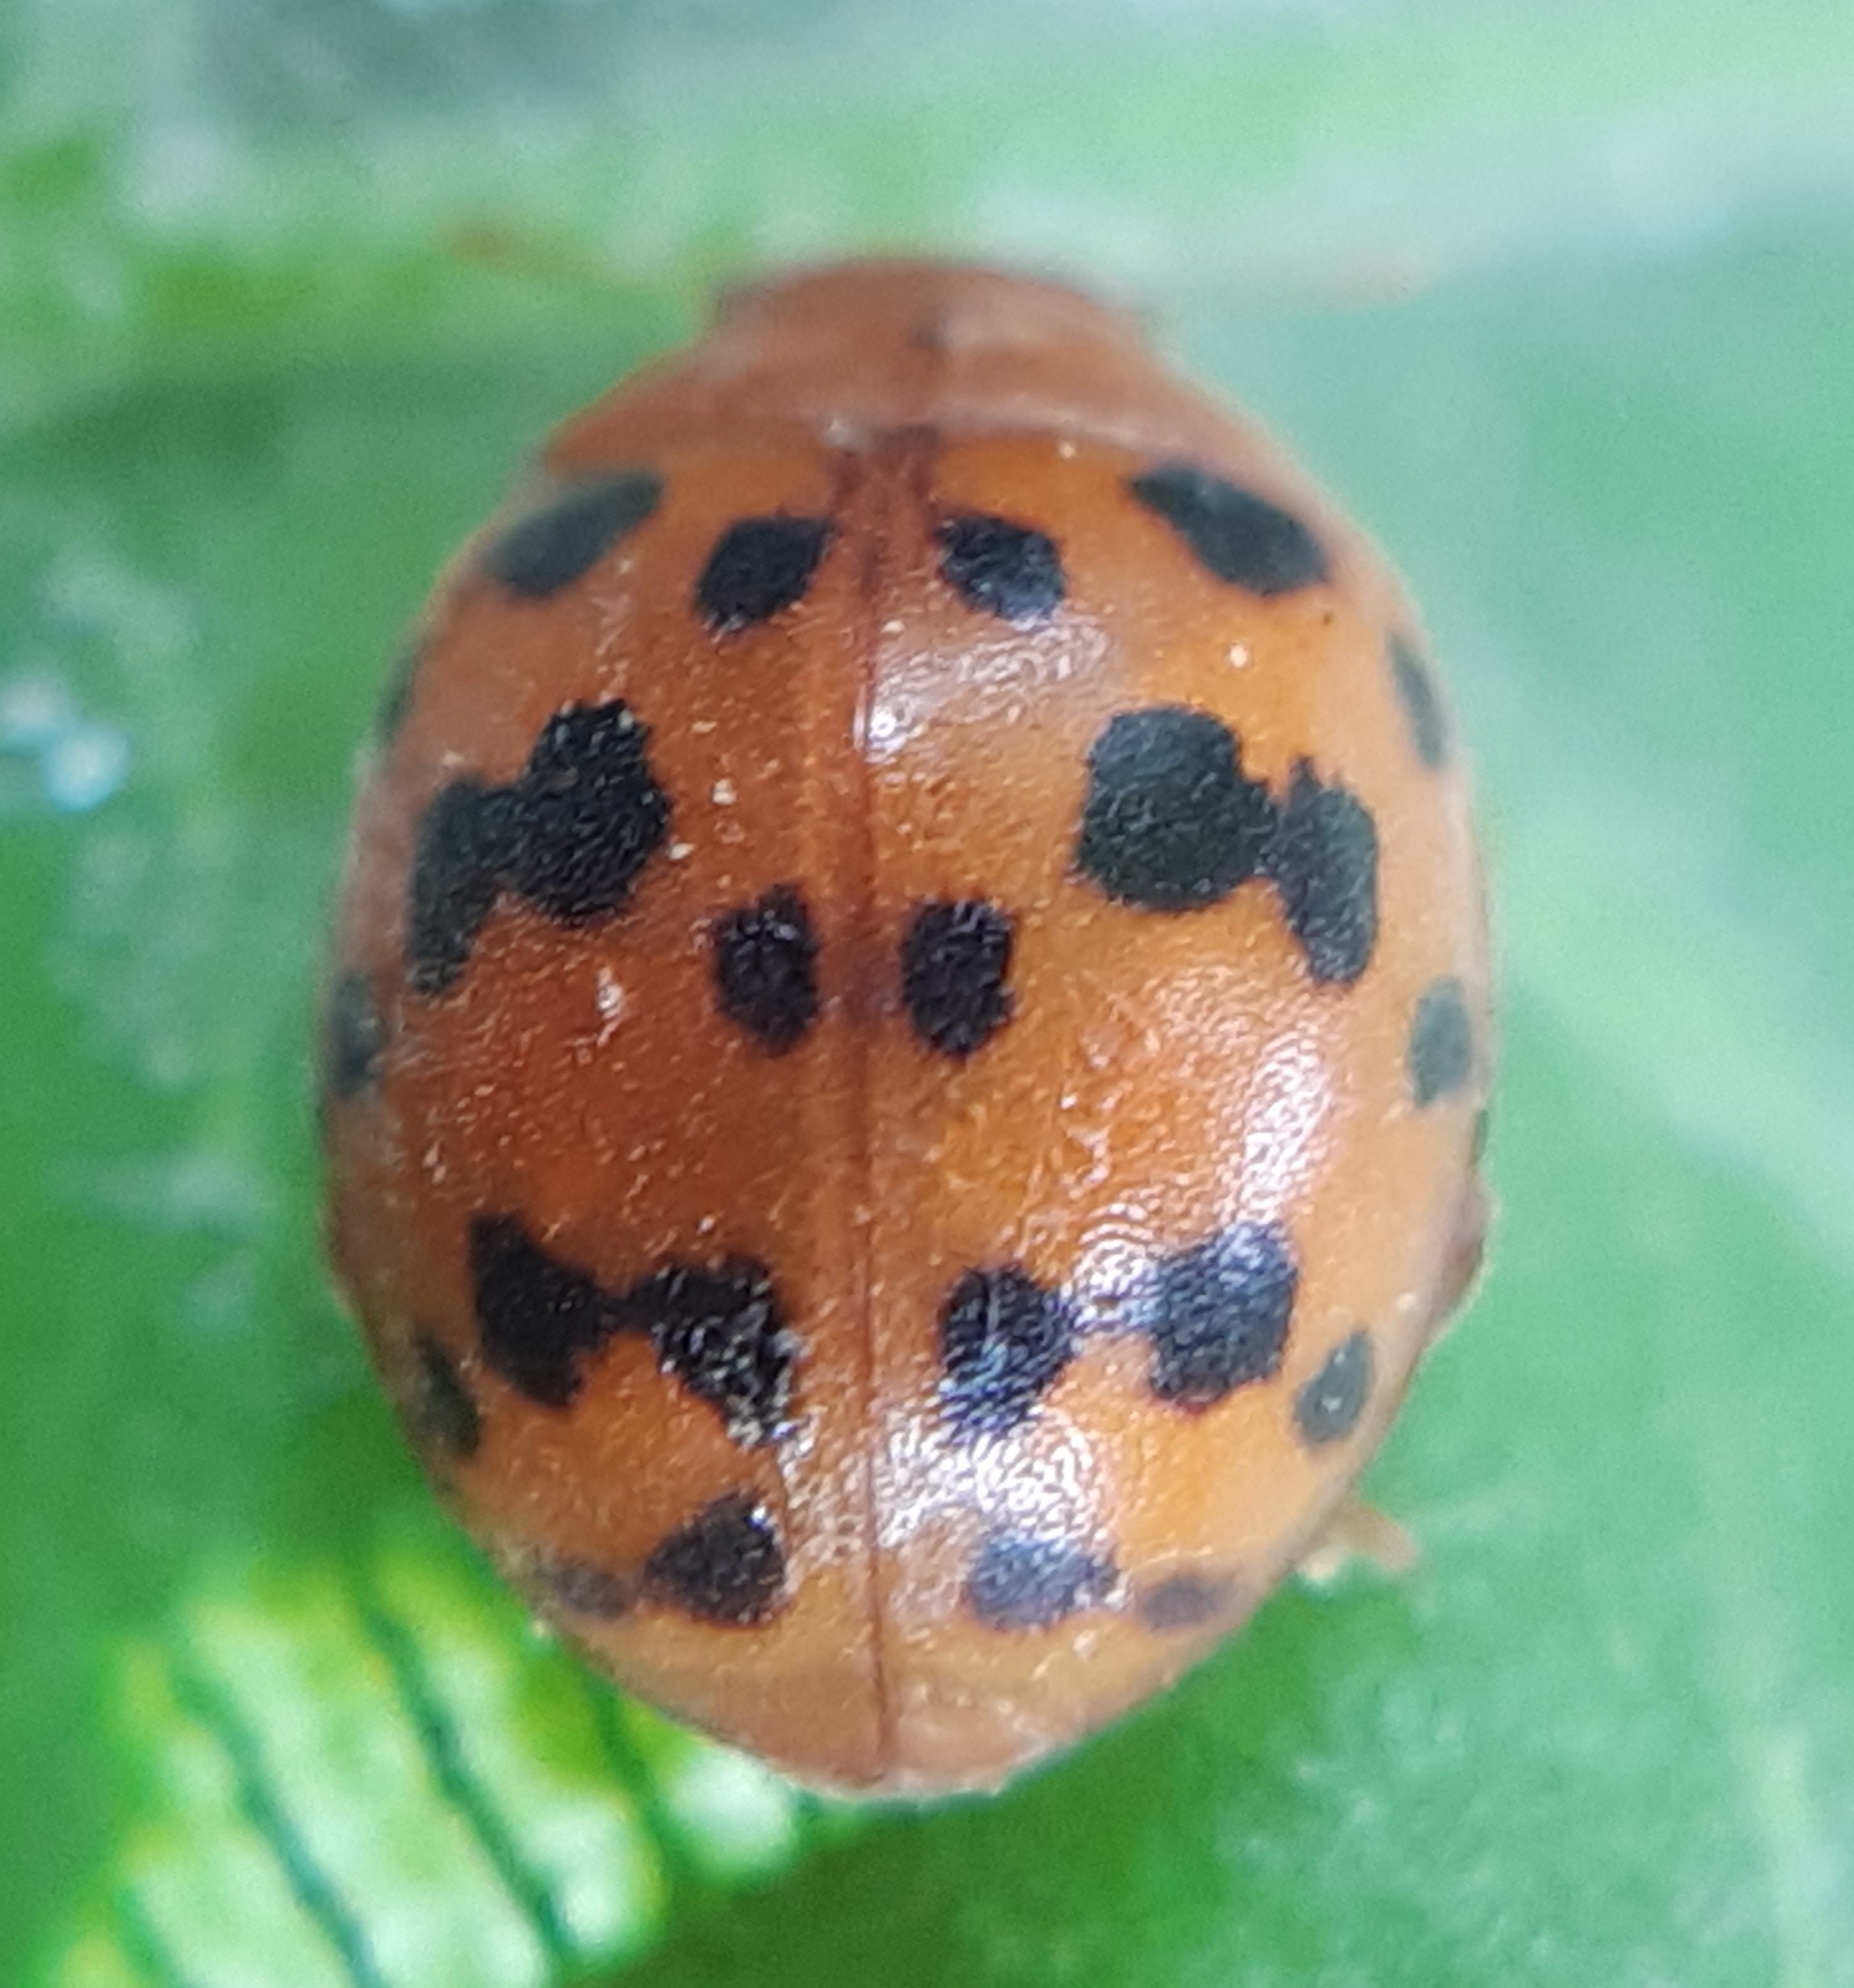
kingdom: Animalia
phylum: Arthropoda
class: Insecta
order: Coleoptera
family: Coccinellidae
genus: Subcoccinella
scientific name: Subcoccinella vigintiquatuorpunctata
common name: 24-spot ladybird
